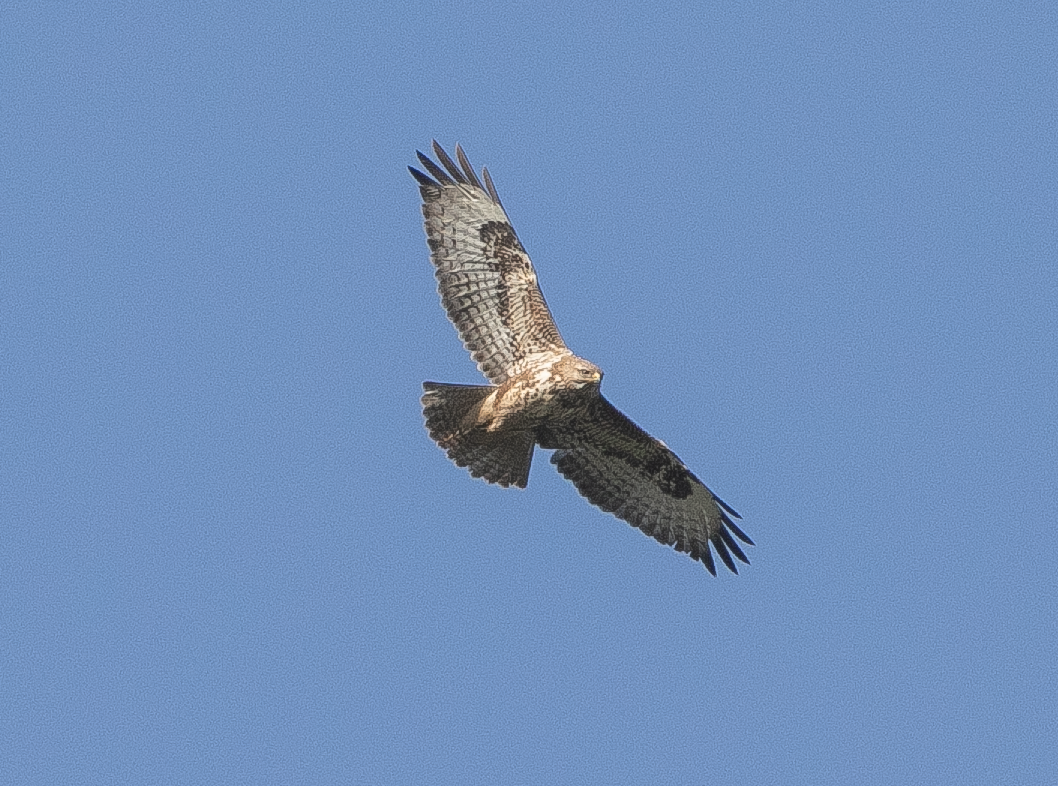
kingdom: Animalia
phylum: Chordata
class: Aves
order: Accipitriformes
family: Accipitridae
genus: Buteo
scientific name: Buteo buteo
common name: Common buzzard
